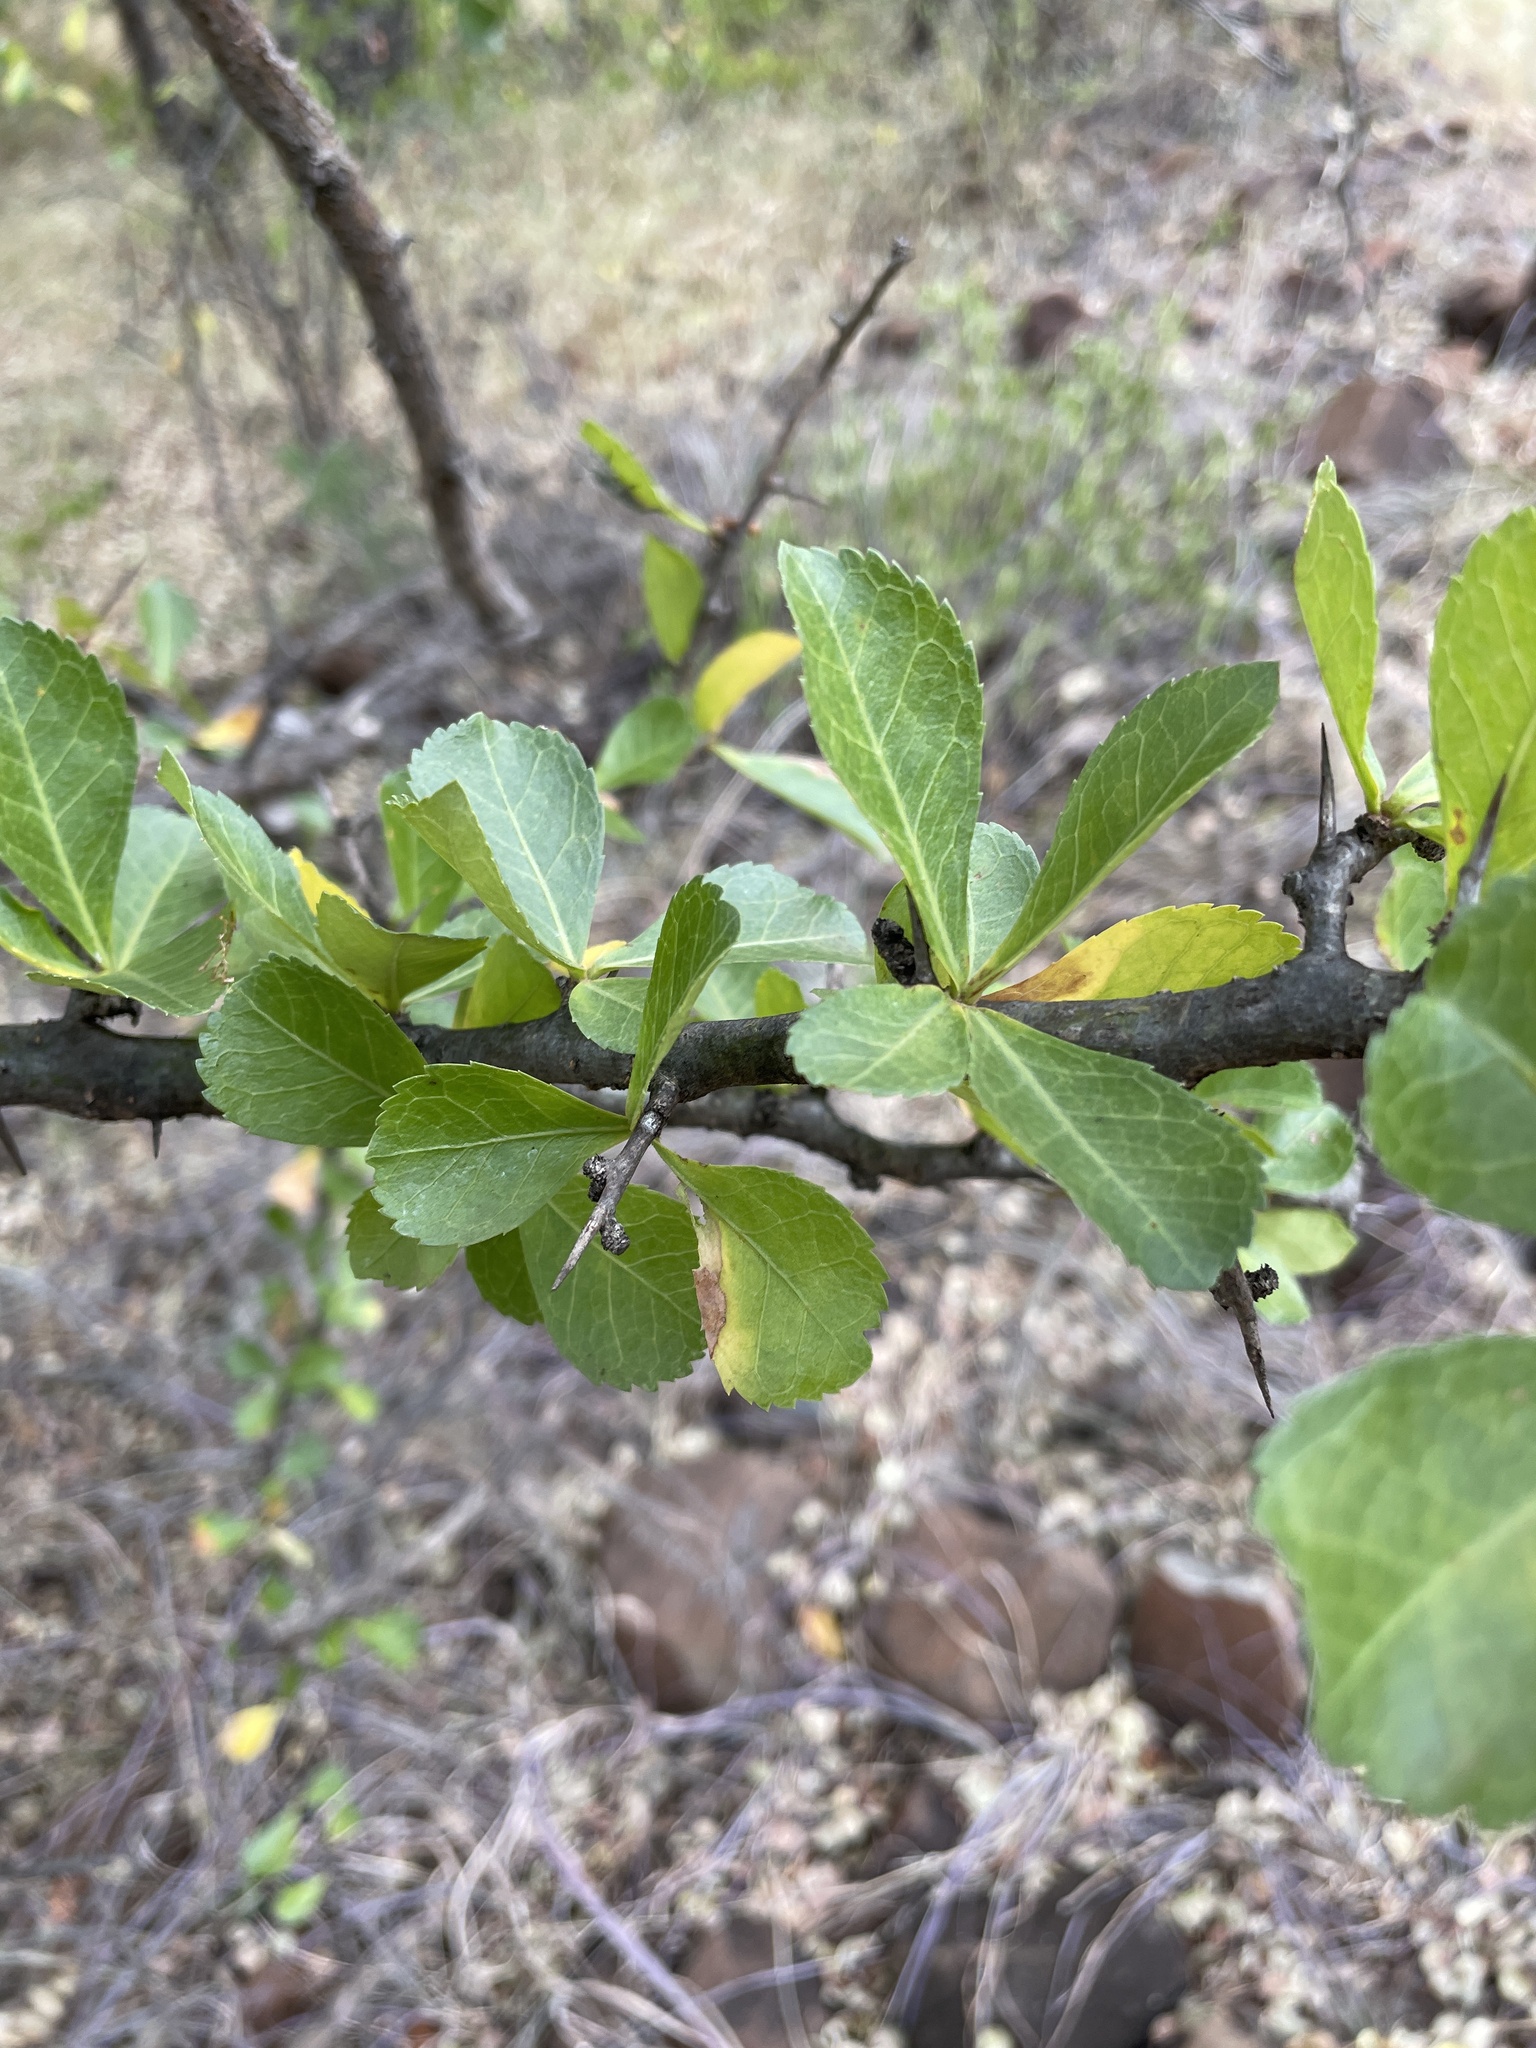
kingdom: Plantae
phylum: Tracheophyta
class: Magnoliopsida
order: Sapindales
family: Burseraceae
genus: Commiphora
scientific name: Commiphora glandulosa
